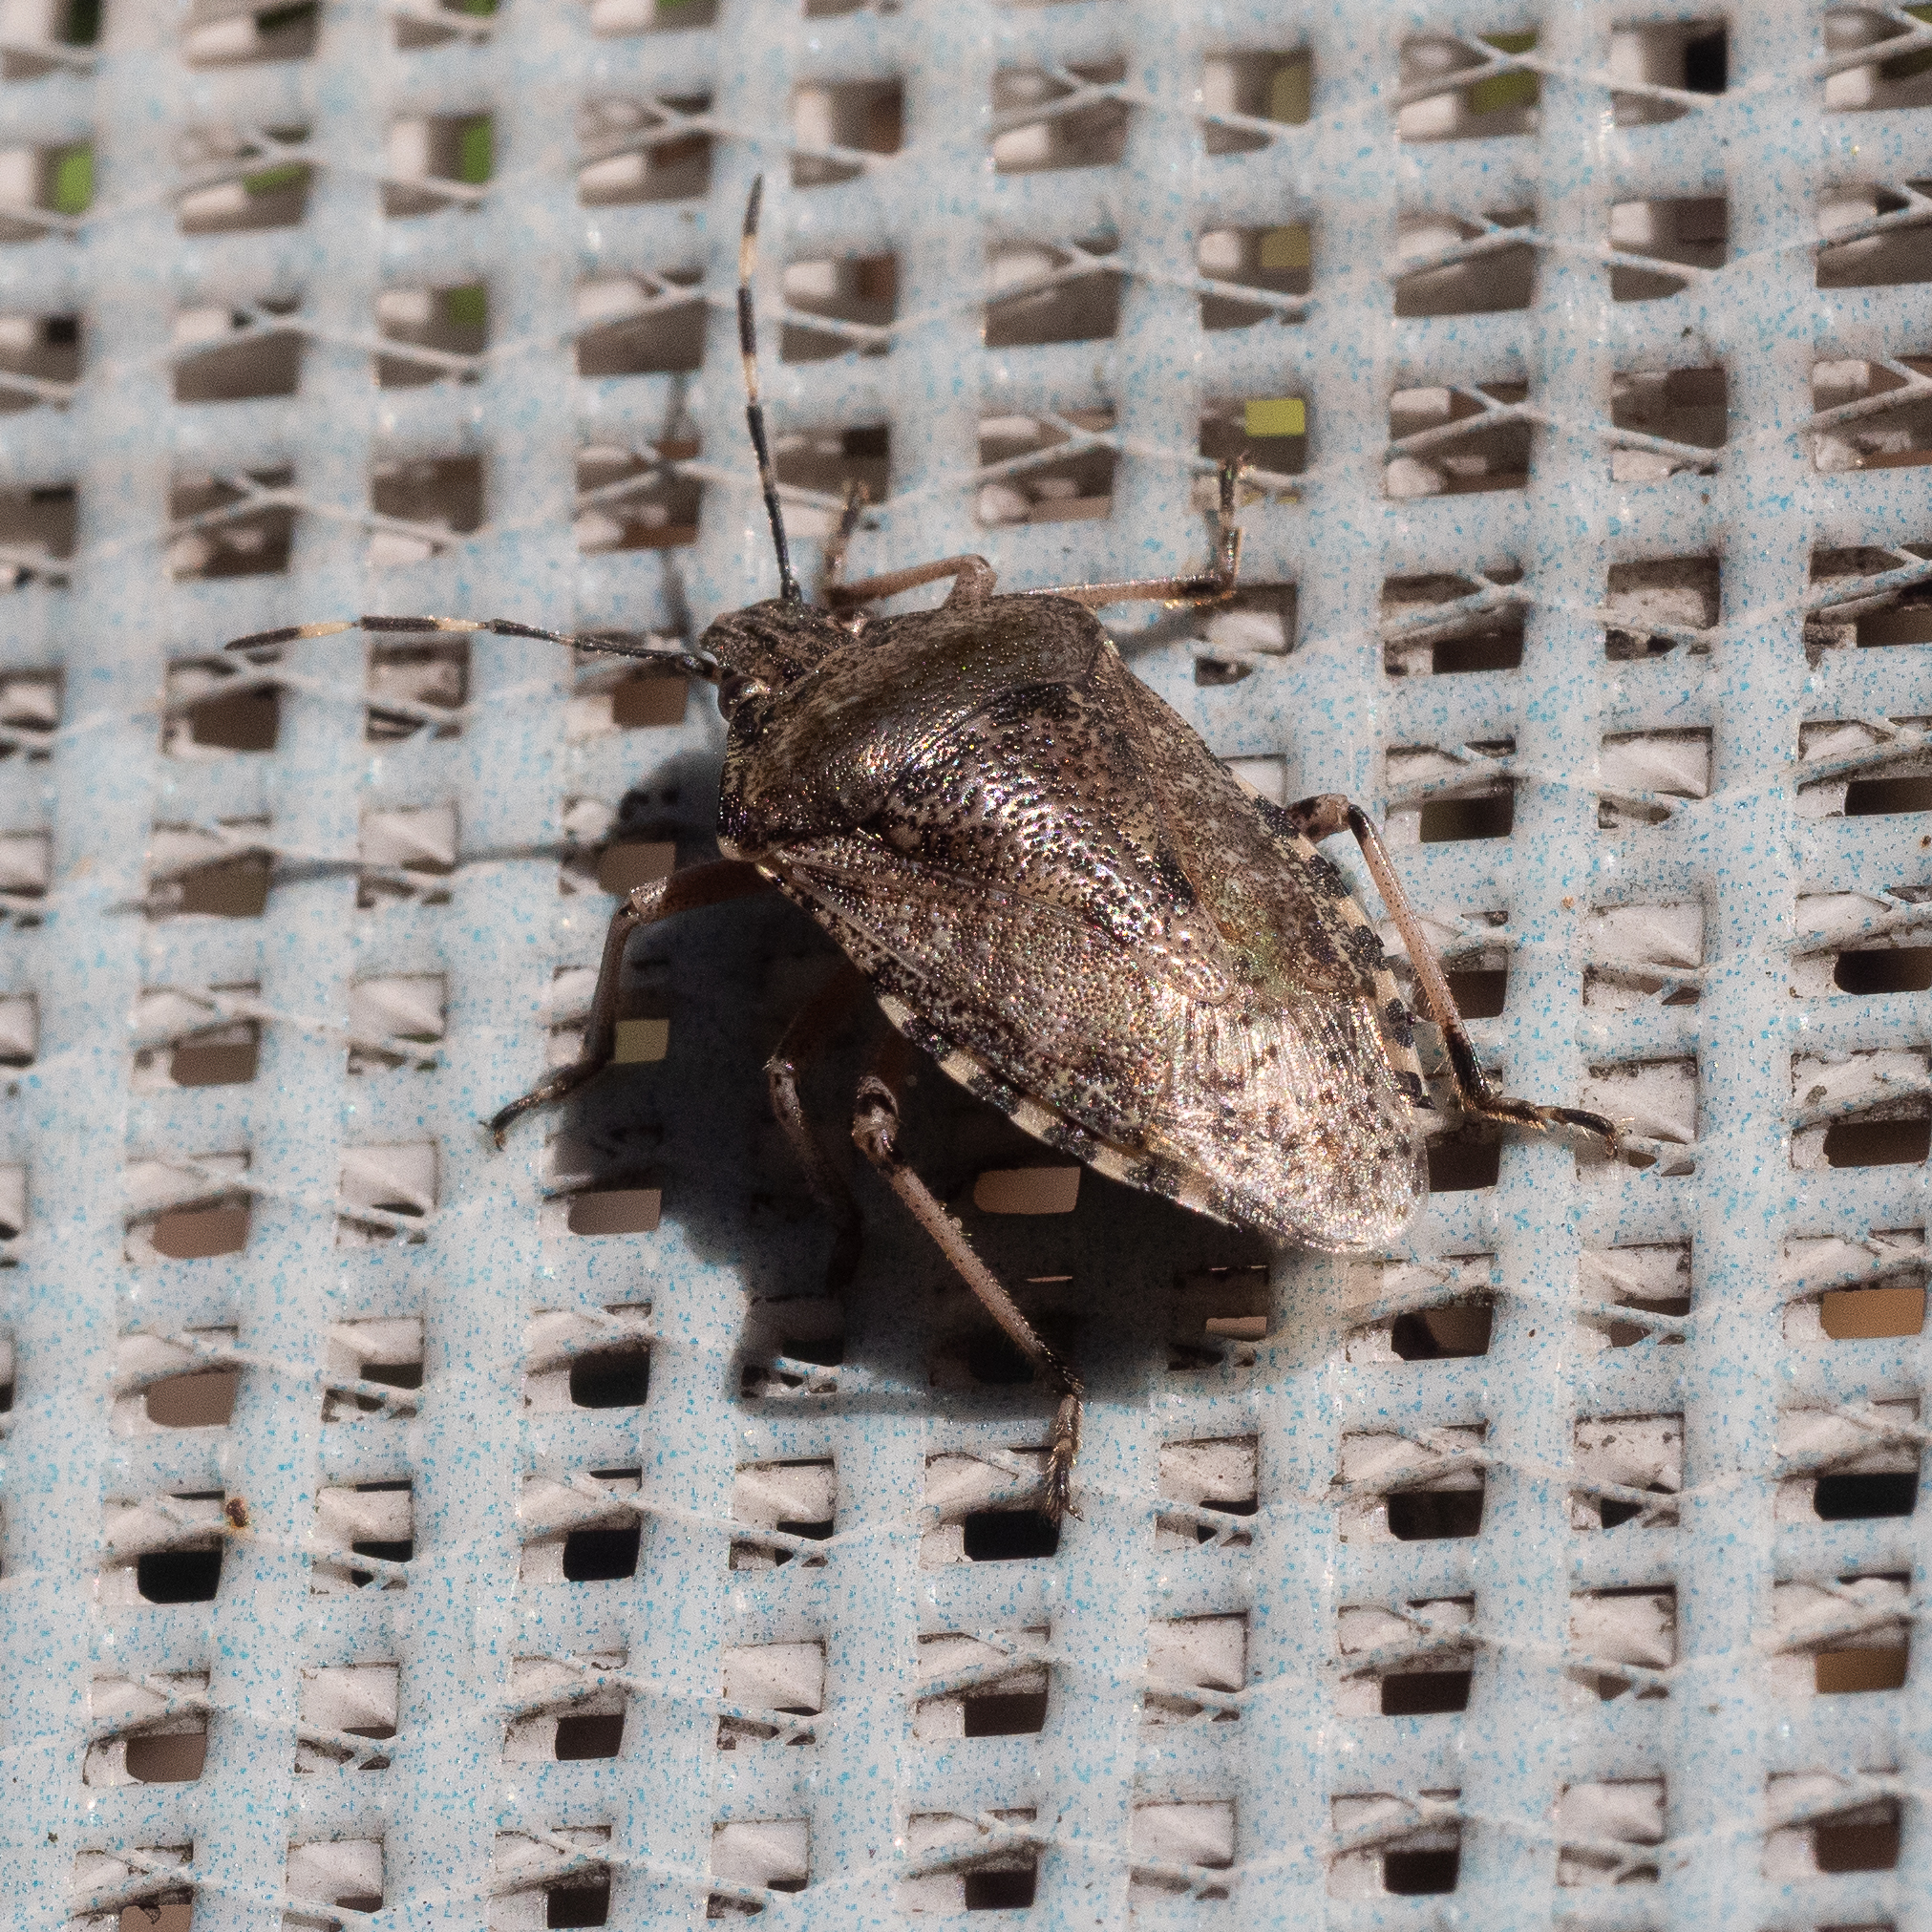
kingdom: Animalia
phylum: Arthropoda
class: Insecta
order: Hemiptera
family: Pentatomidae
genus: Rhaphigaster
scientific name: Rhaphigaster nebulosa
